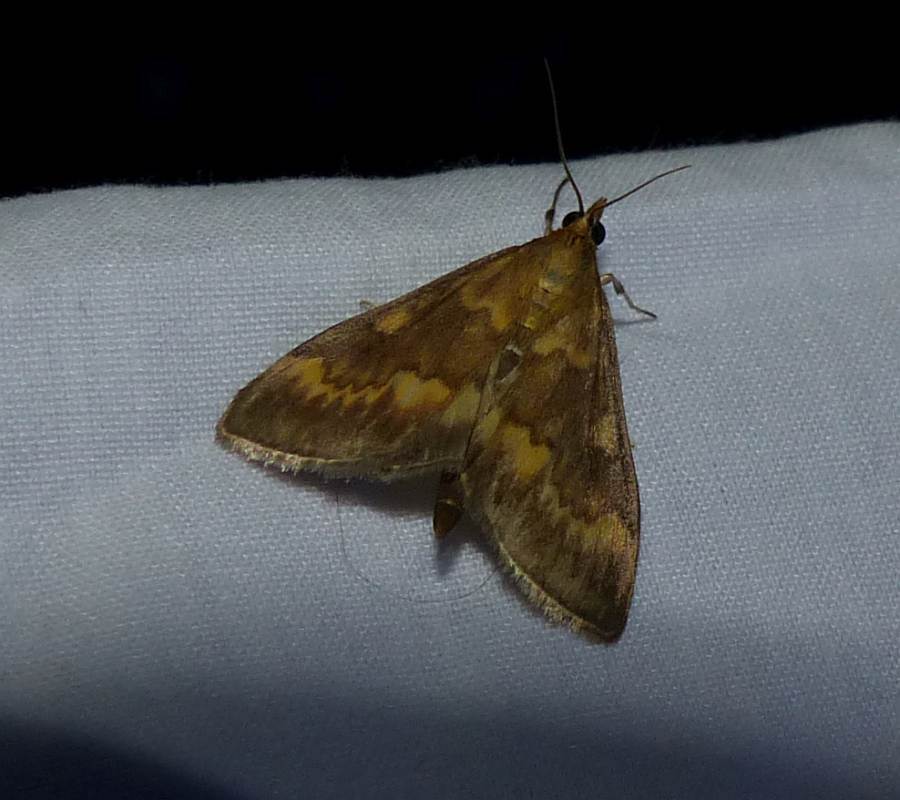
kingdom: Animalia
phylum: Arthropoda
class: Insecta
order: Lepidoptera
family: Crambidae
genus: Ostrinia
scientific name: Ostrinia nubilalis
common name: European corn borer
